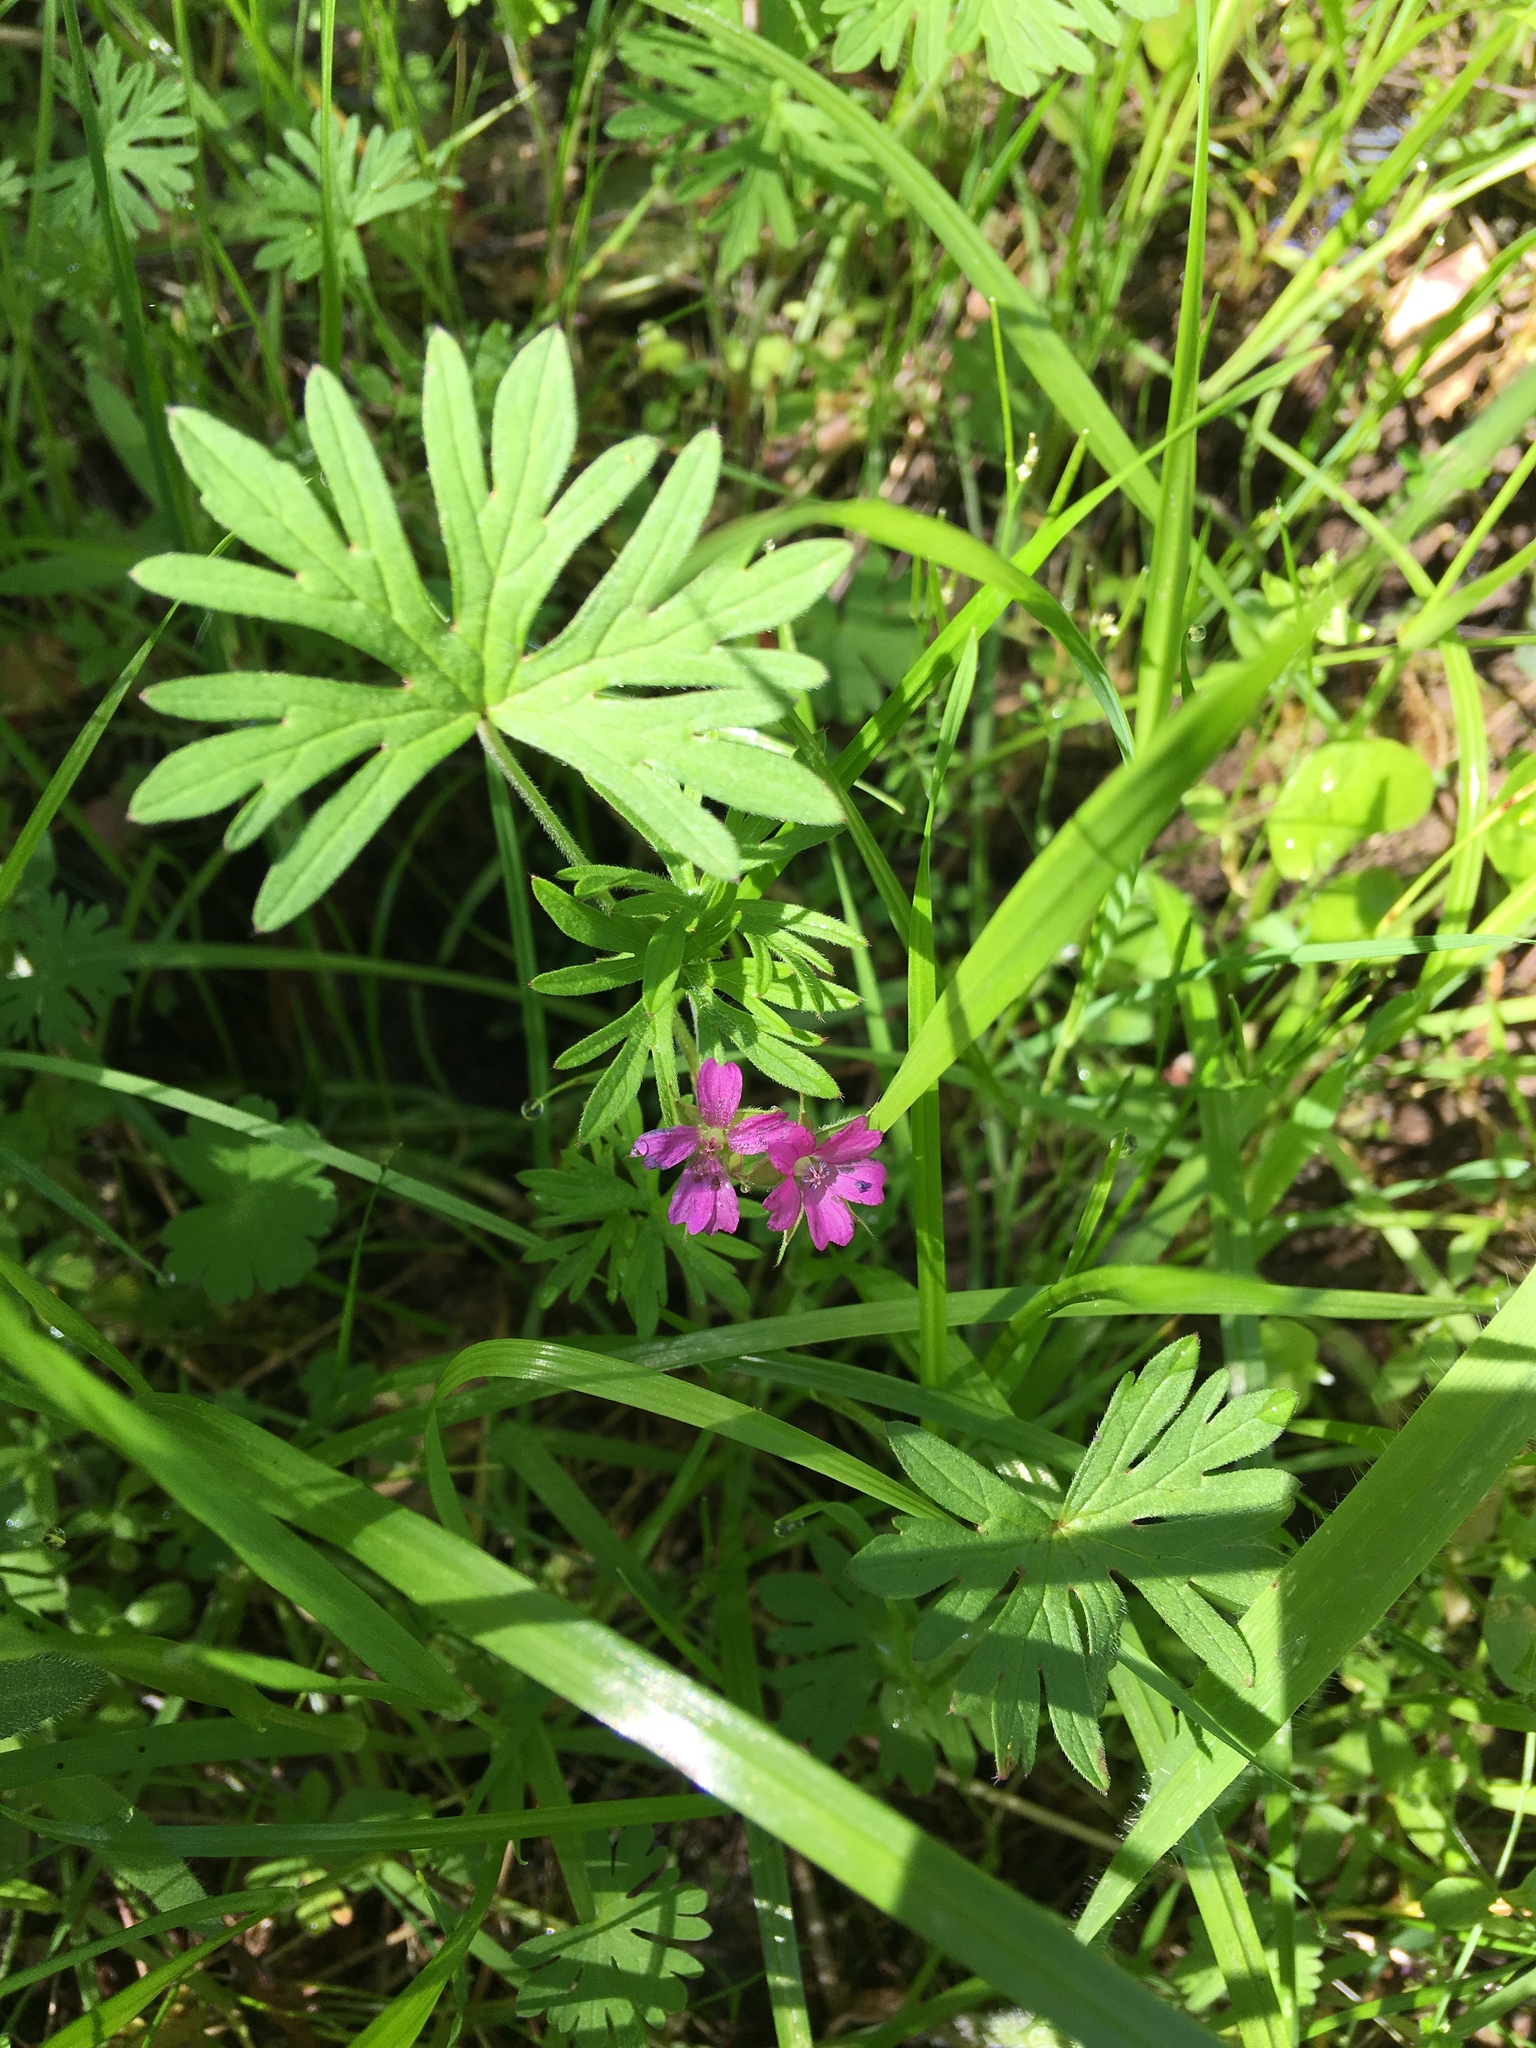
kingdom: Plantae
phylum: Tracheophyta
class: Magnoliopsida
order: Geraniales
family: Geraniaceae
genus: Geranium
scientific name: Geranium dissectum
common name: Cut-leaved crane's-bill
